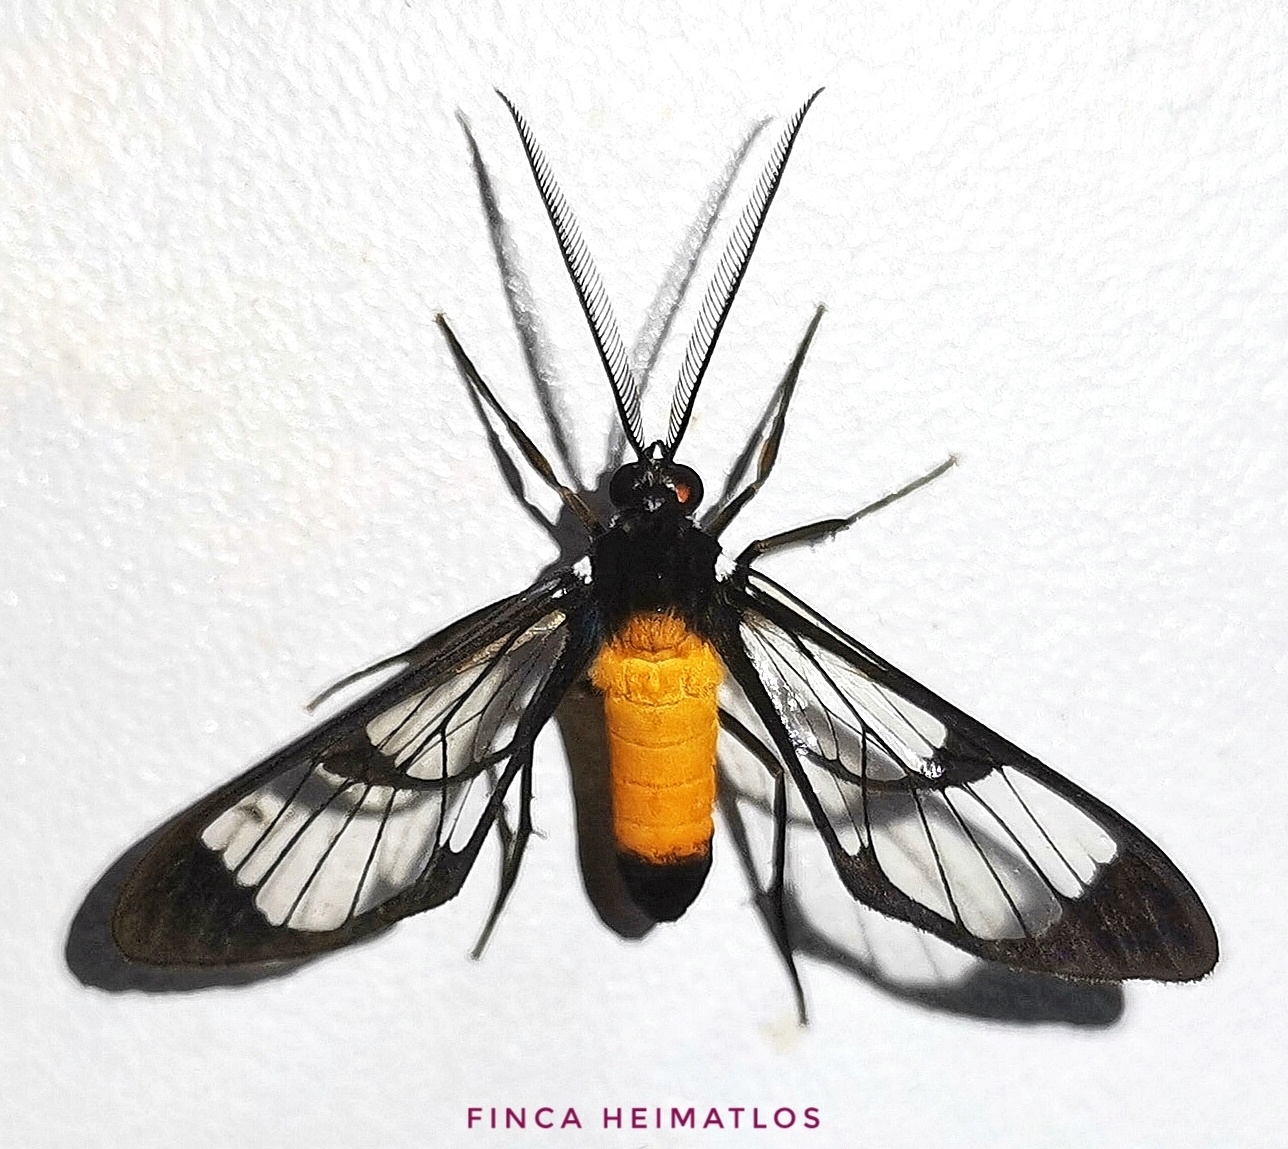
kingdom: Animalia
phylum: Arthropoda
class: Insecta
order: Lepidoptera
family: Erebidae
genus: Cosmosoma
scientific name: Cosmosoma intensa
